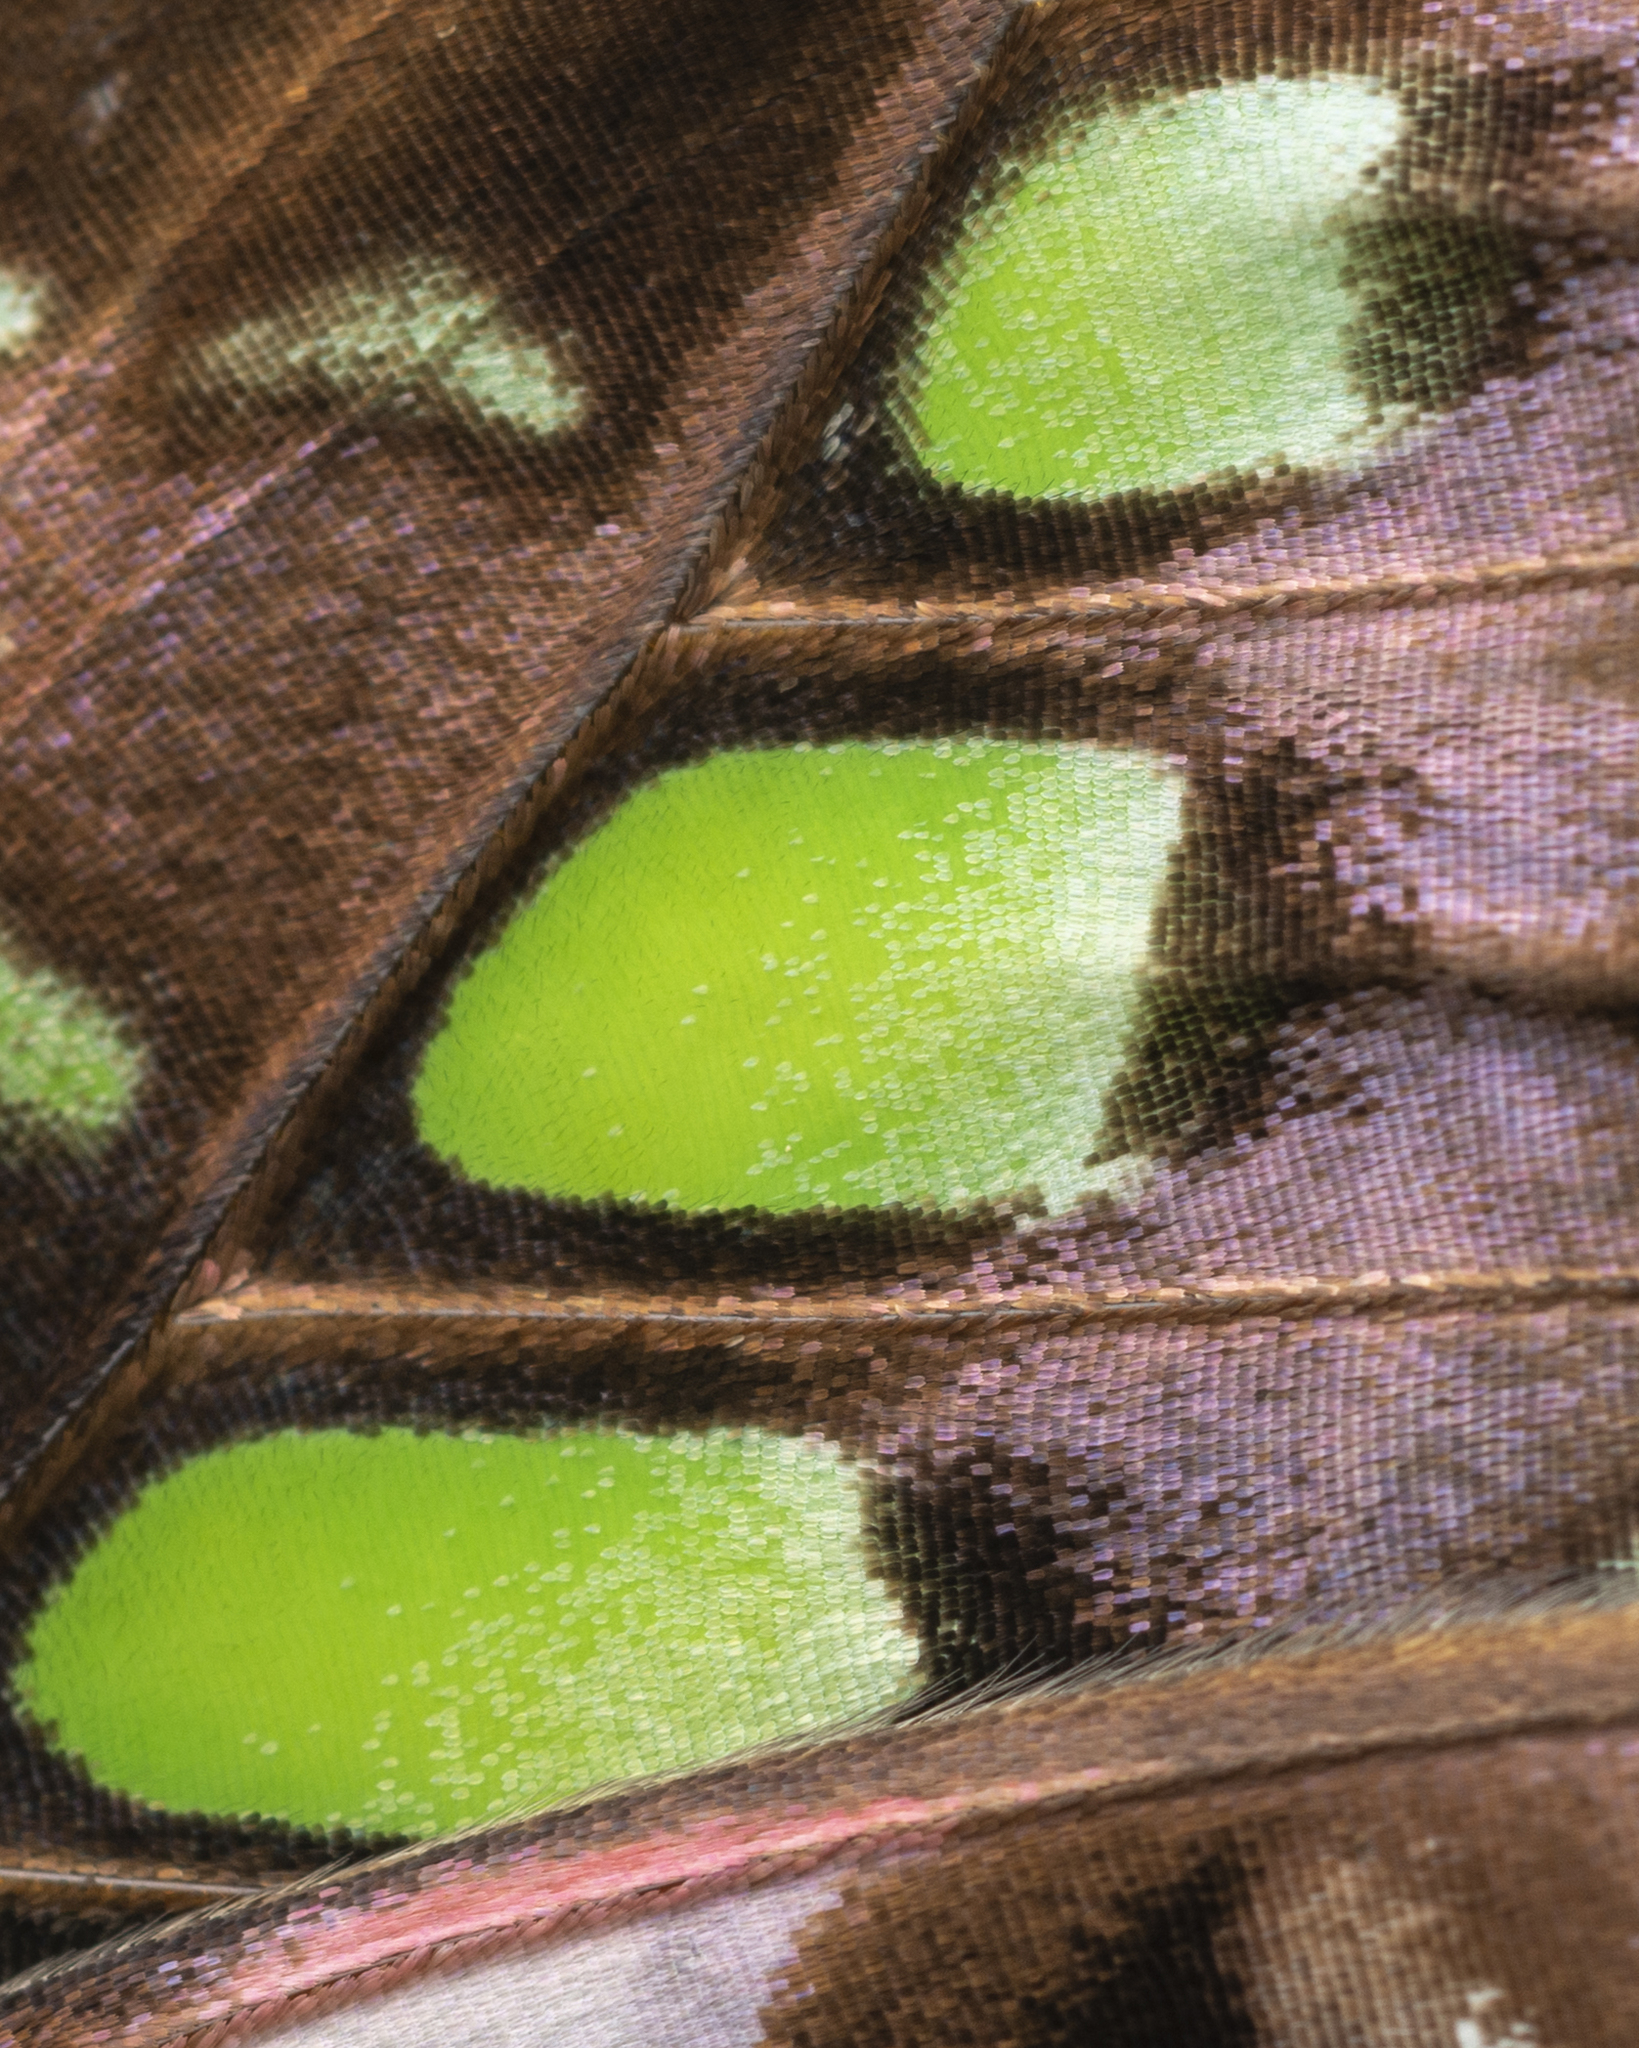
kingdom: Animalia
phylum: Arthropoda
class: Insecta
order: Lepidoptera
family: Papilionidae
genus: Graphium
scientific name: Graphium agamemnon
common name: Tailed jay
